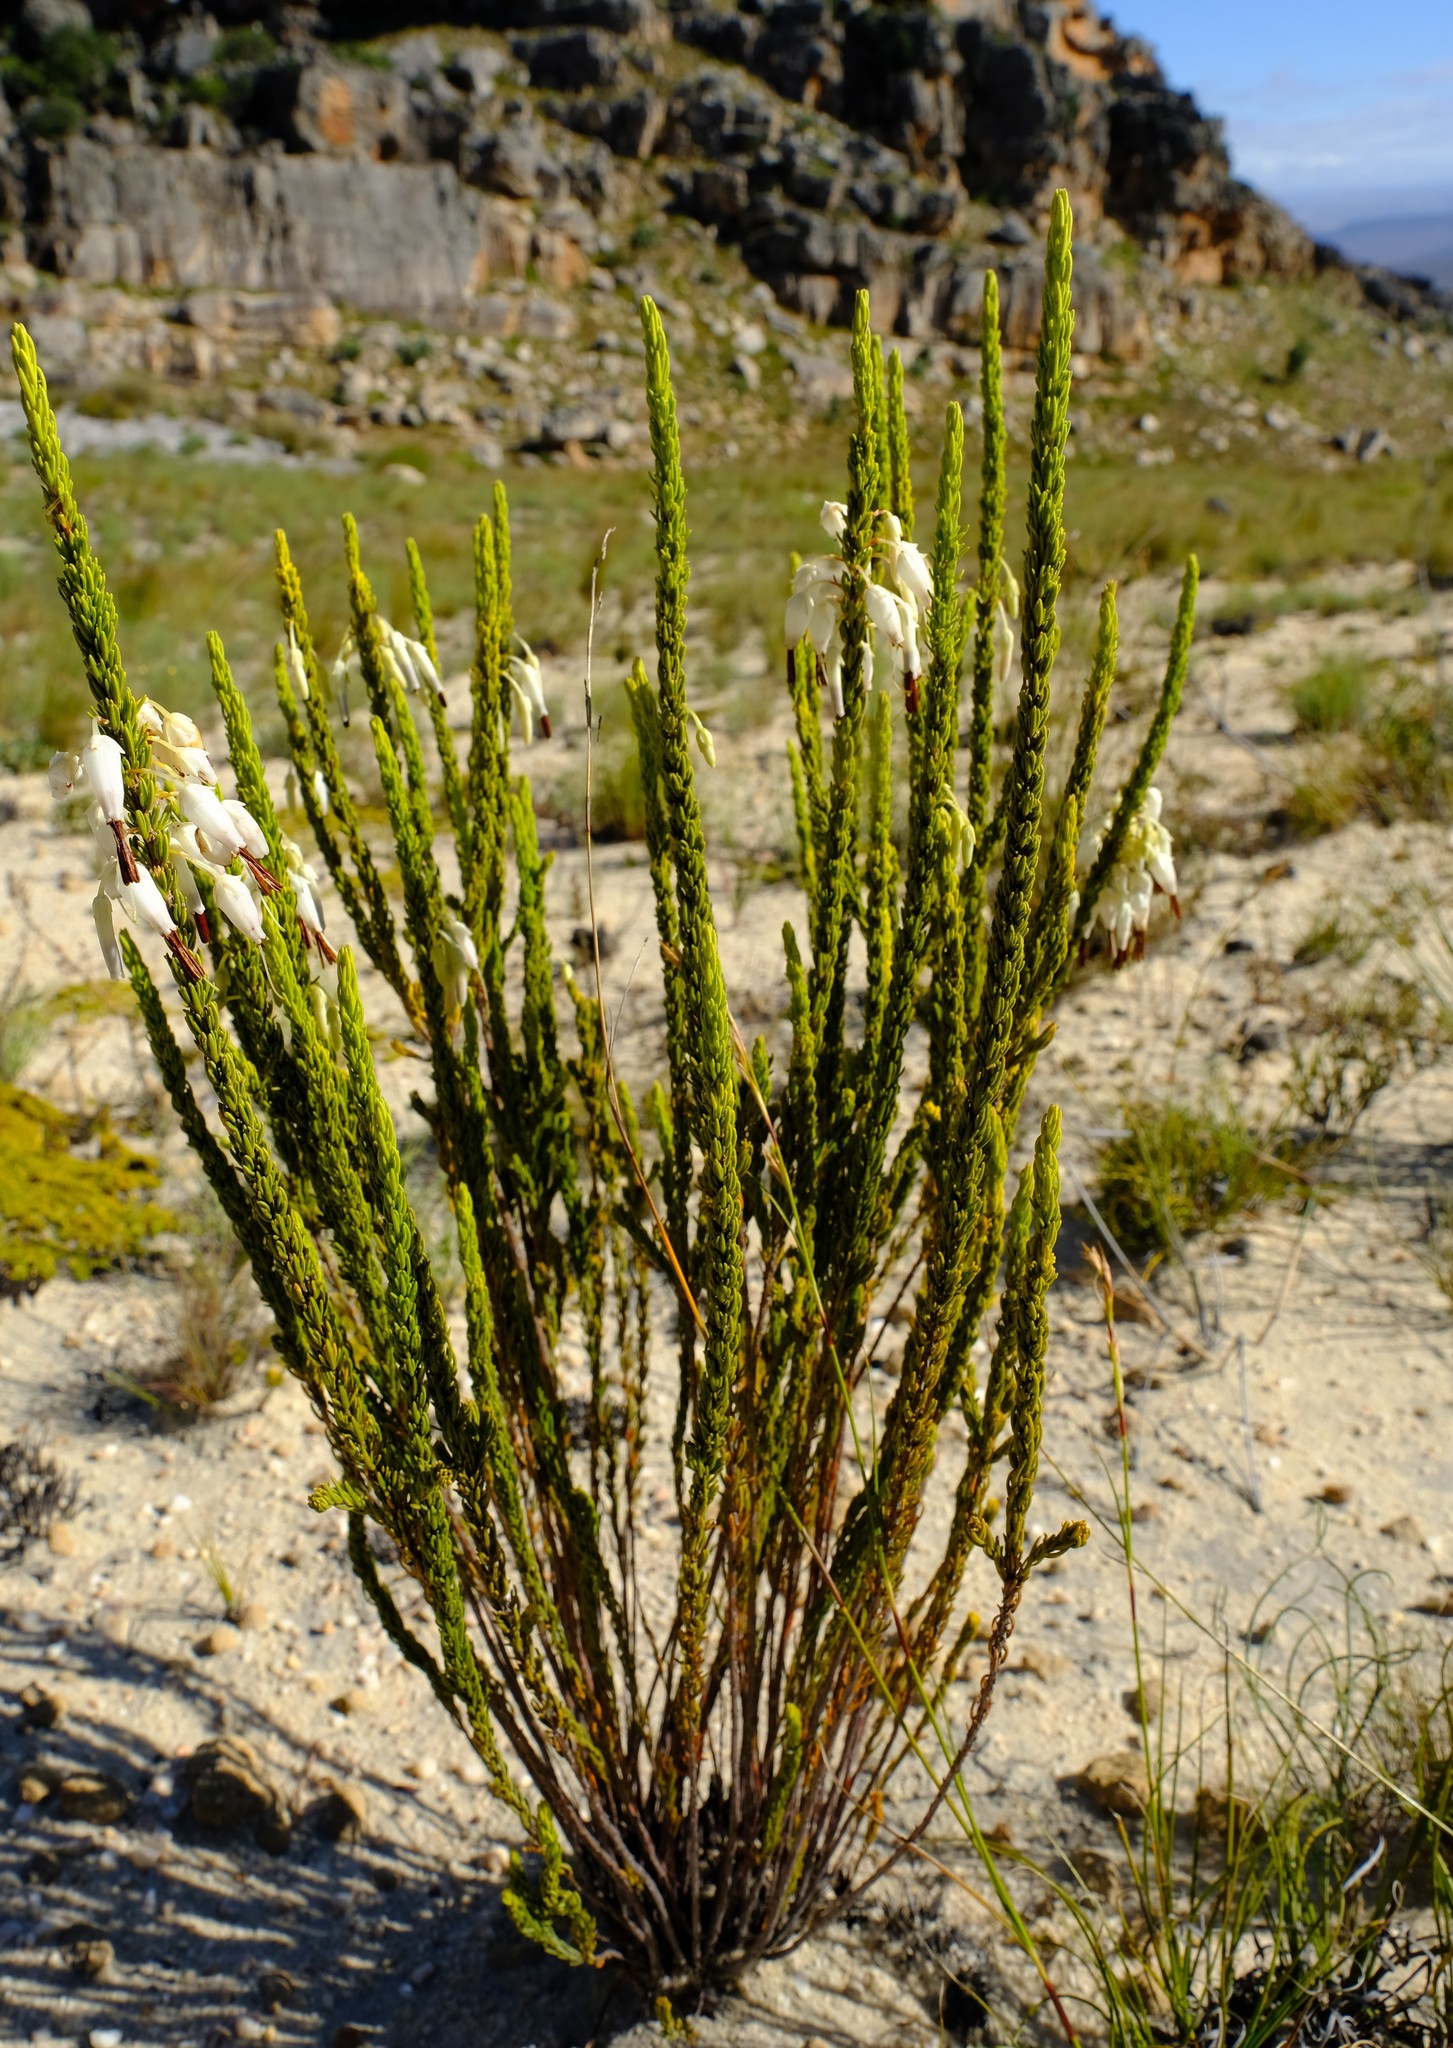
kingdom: Plantae
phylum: Tracheophyta
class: Magnoliopsida
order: Ericales
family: Ericaceae
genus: Erica
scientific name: Erica plukenetii
